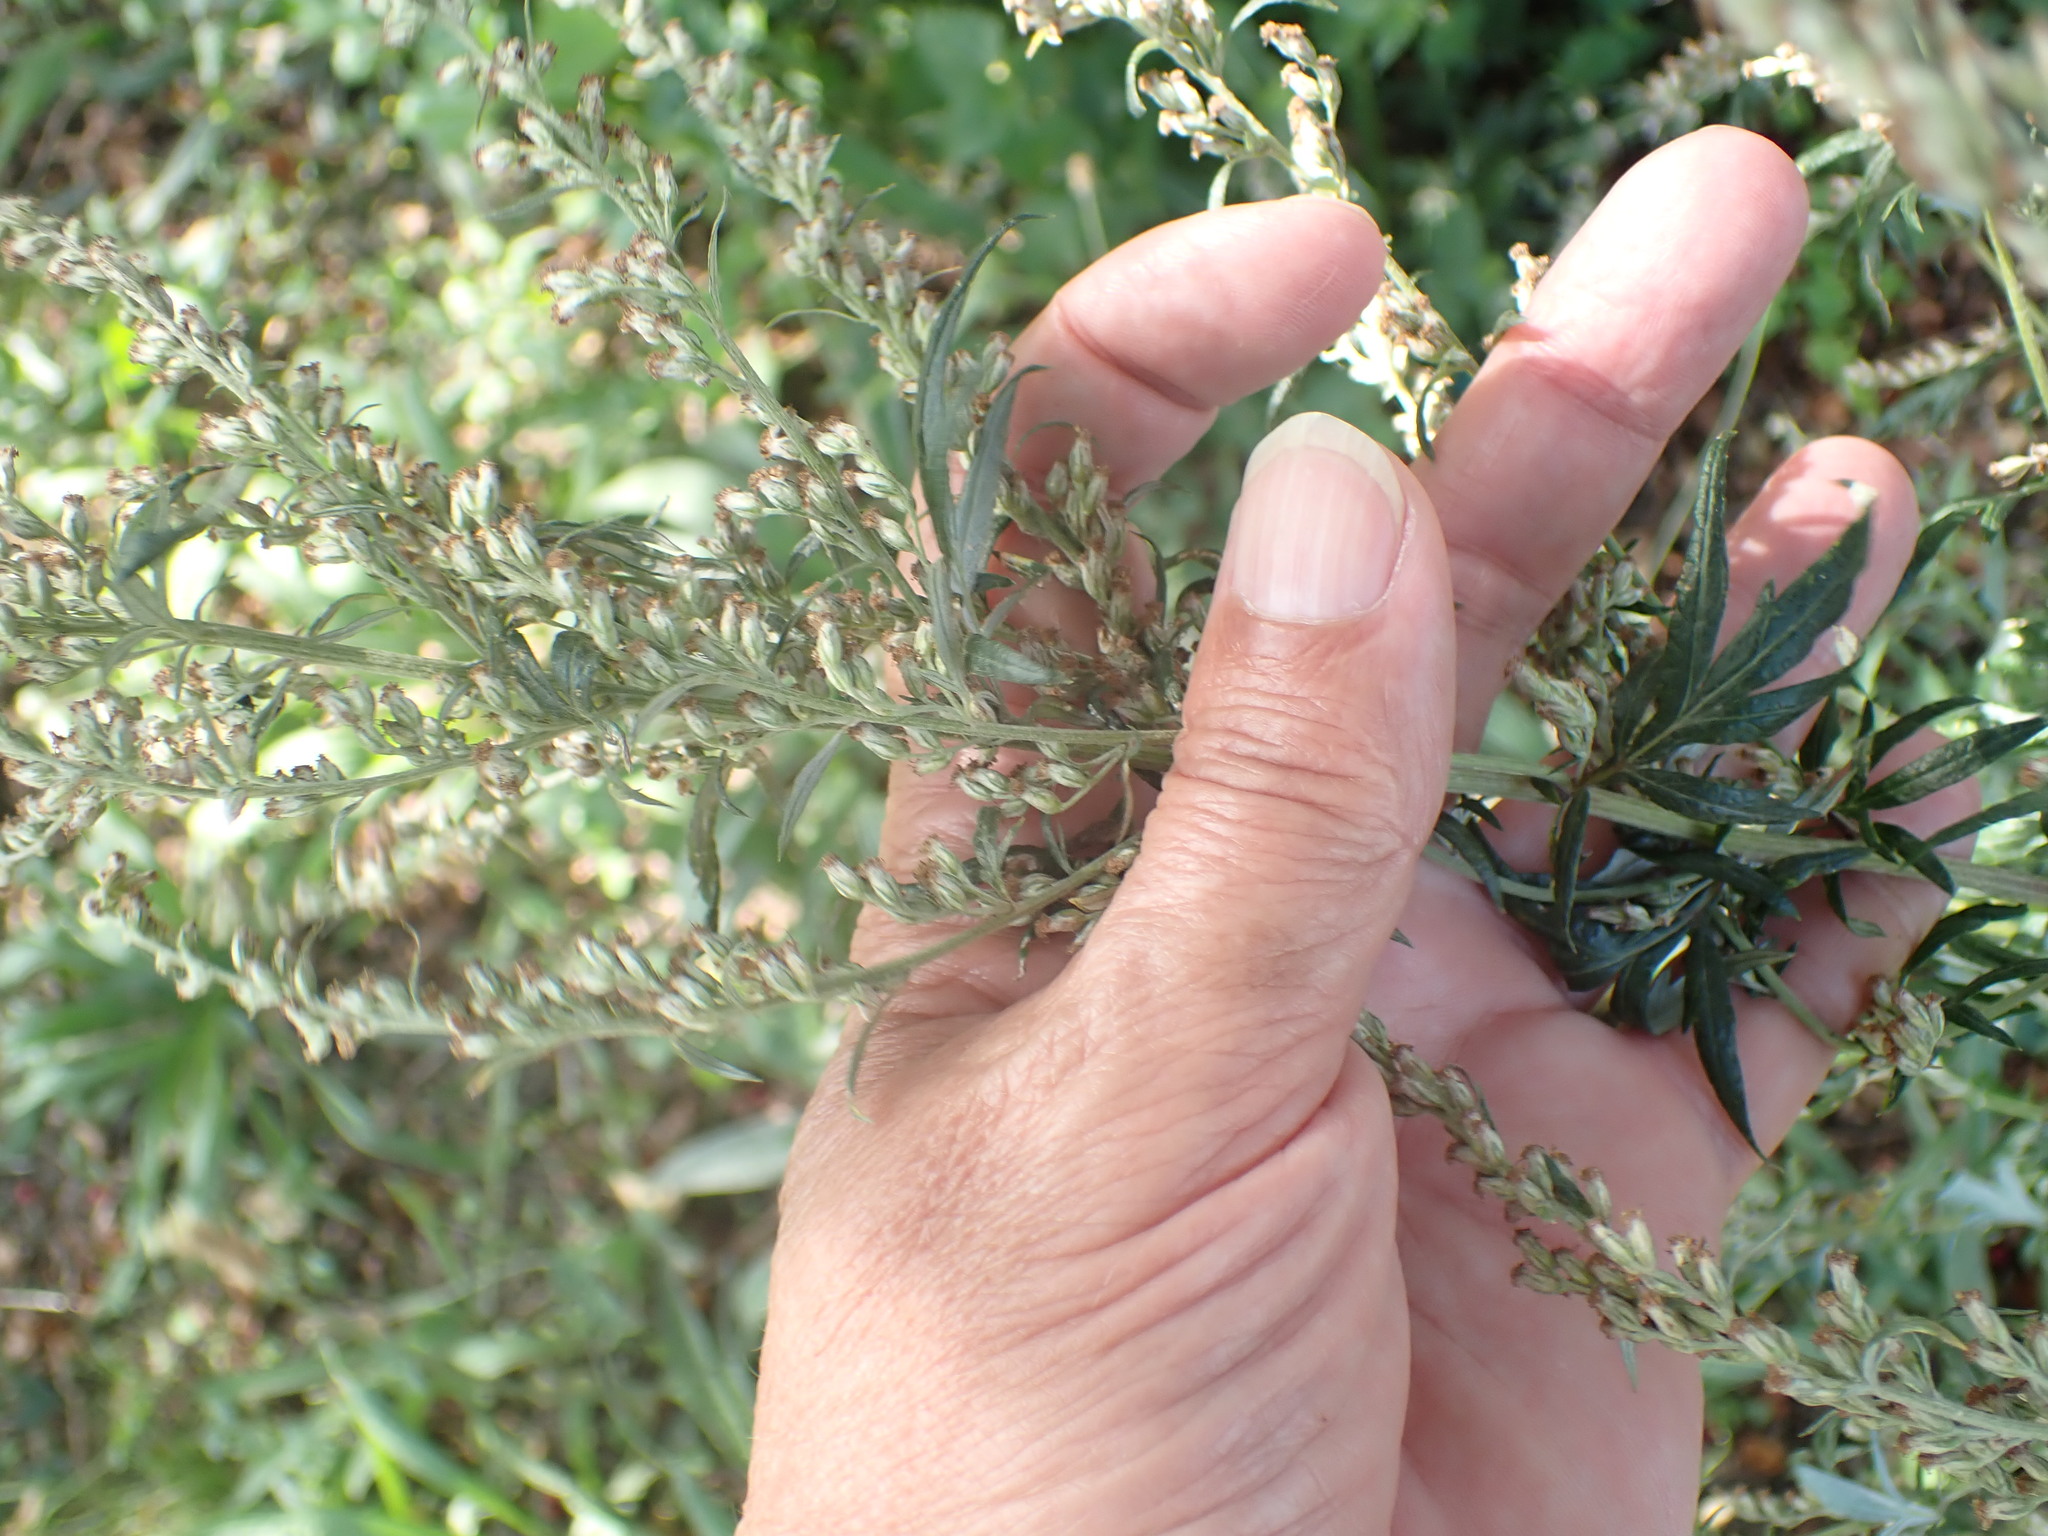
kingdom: Plantae
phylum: Tracheophyta
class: Magnoliopsida
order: Asterales
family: Asteraceae
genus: Artemisia
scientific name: Artemisia vulgaris
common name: Mugwort
